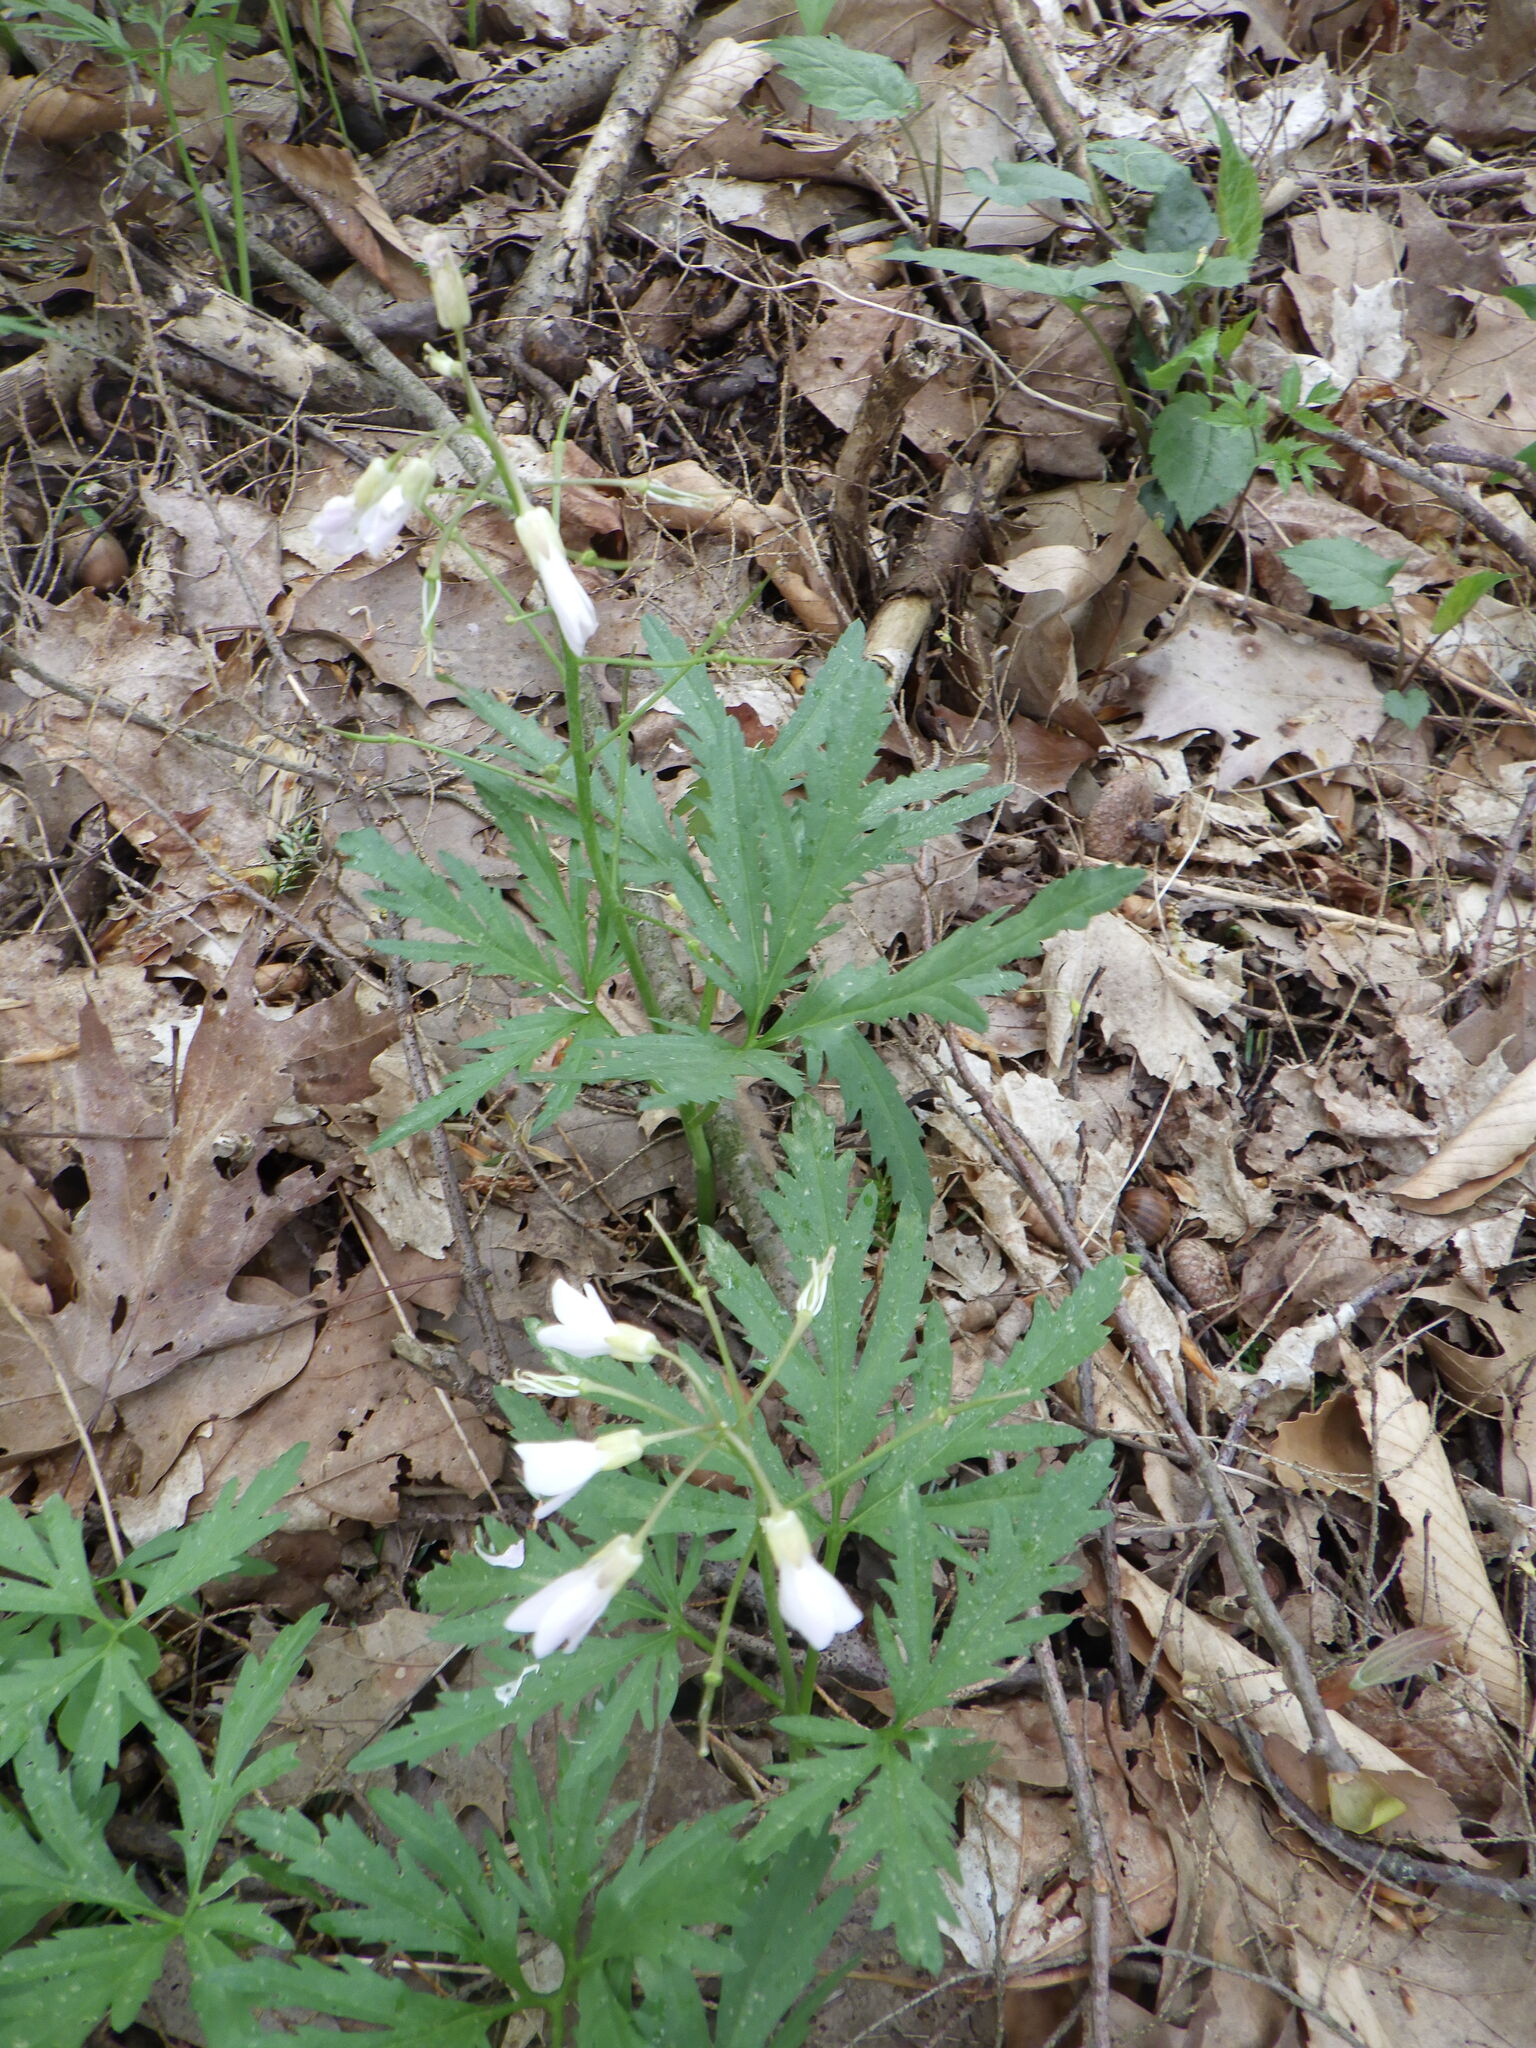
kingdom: Plantae
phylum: Tracheophyta
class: Magnoliopsida
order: Brassicales
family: Brassicaceae
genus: Cardamine
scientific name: Cardamine concatenata
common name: Cut-leaf toothcup
